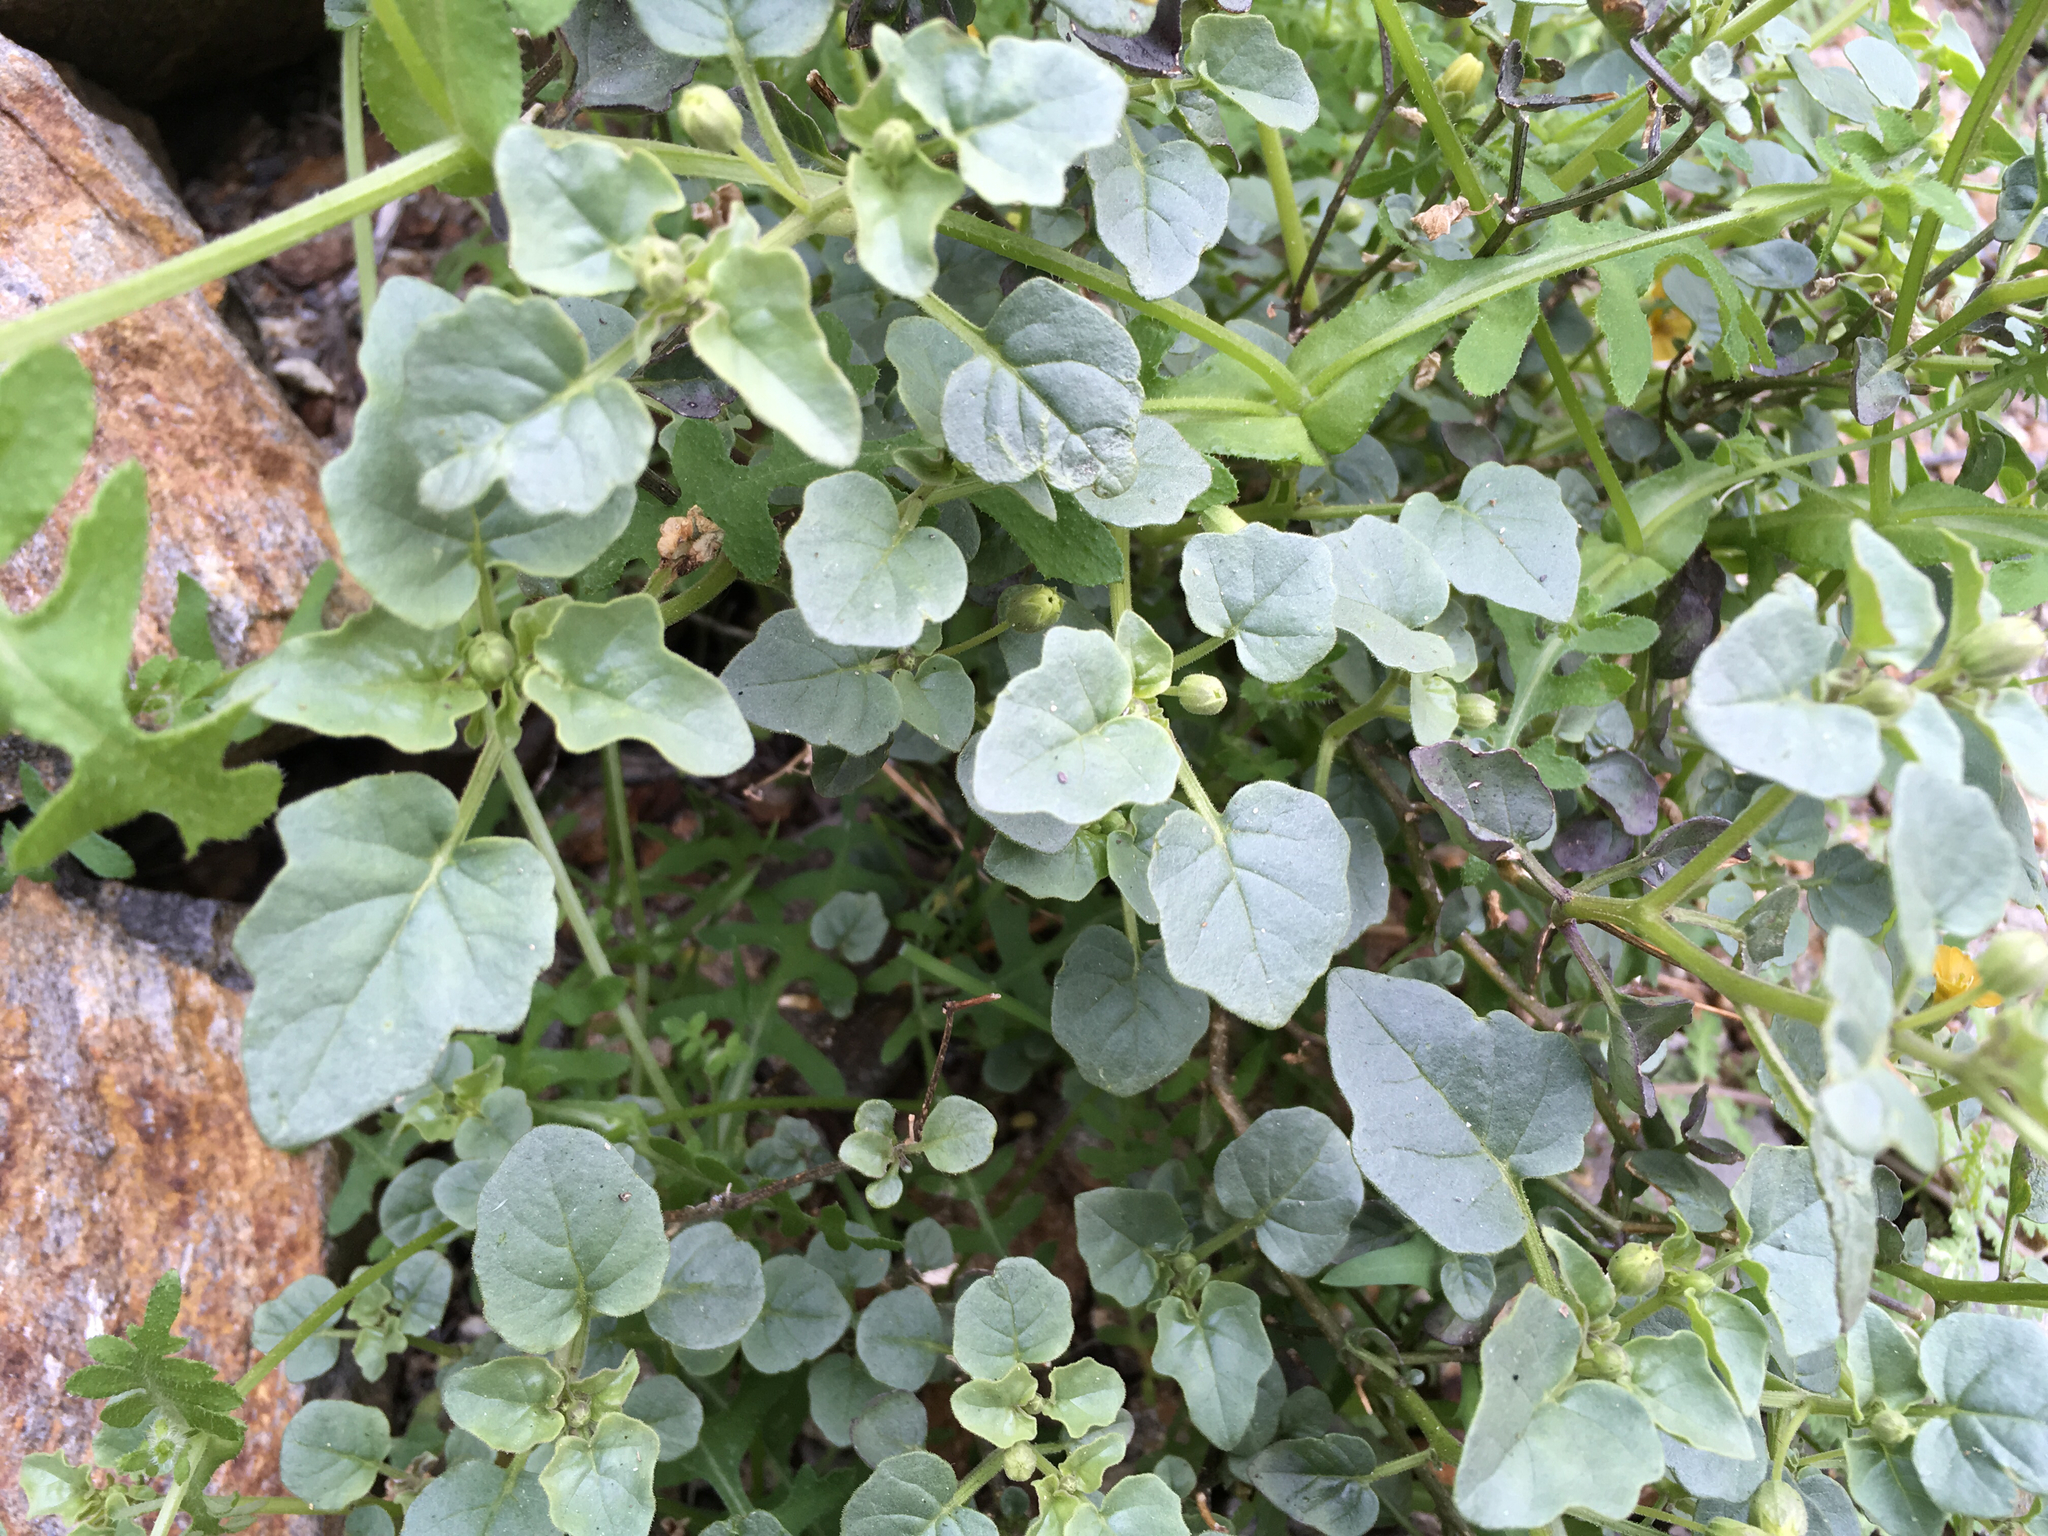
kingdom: Plantae
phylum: Tracheophyta
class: Magnoliopsida
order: Solanales
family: Solanaceae
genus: Physalis
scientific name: Physalis crassifolia
